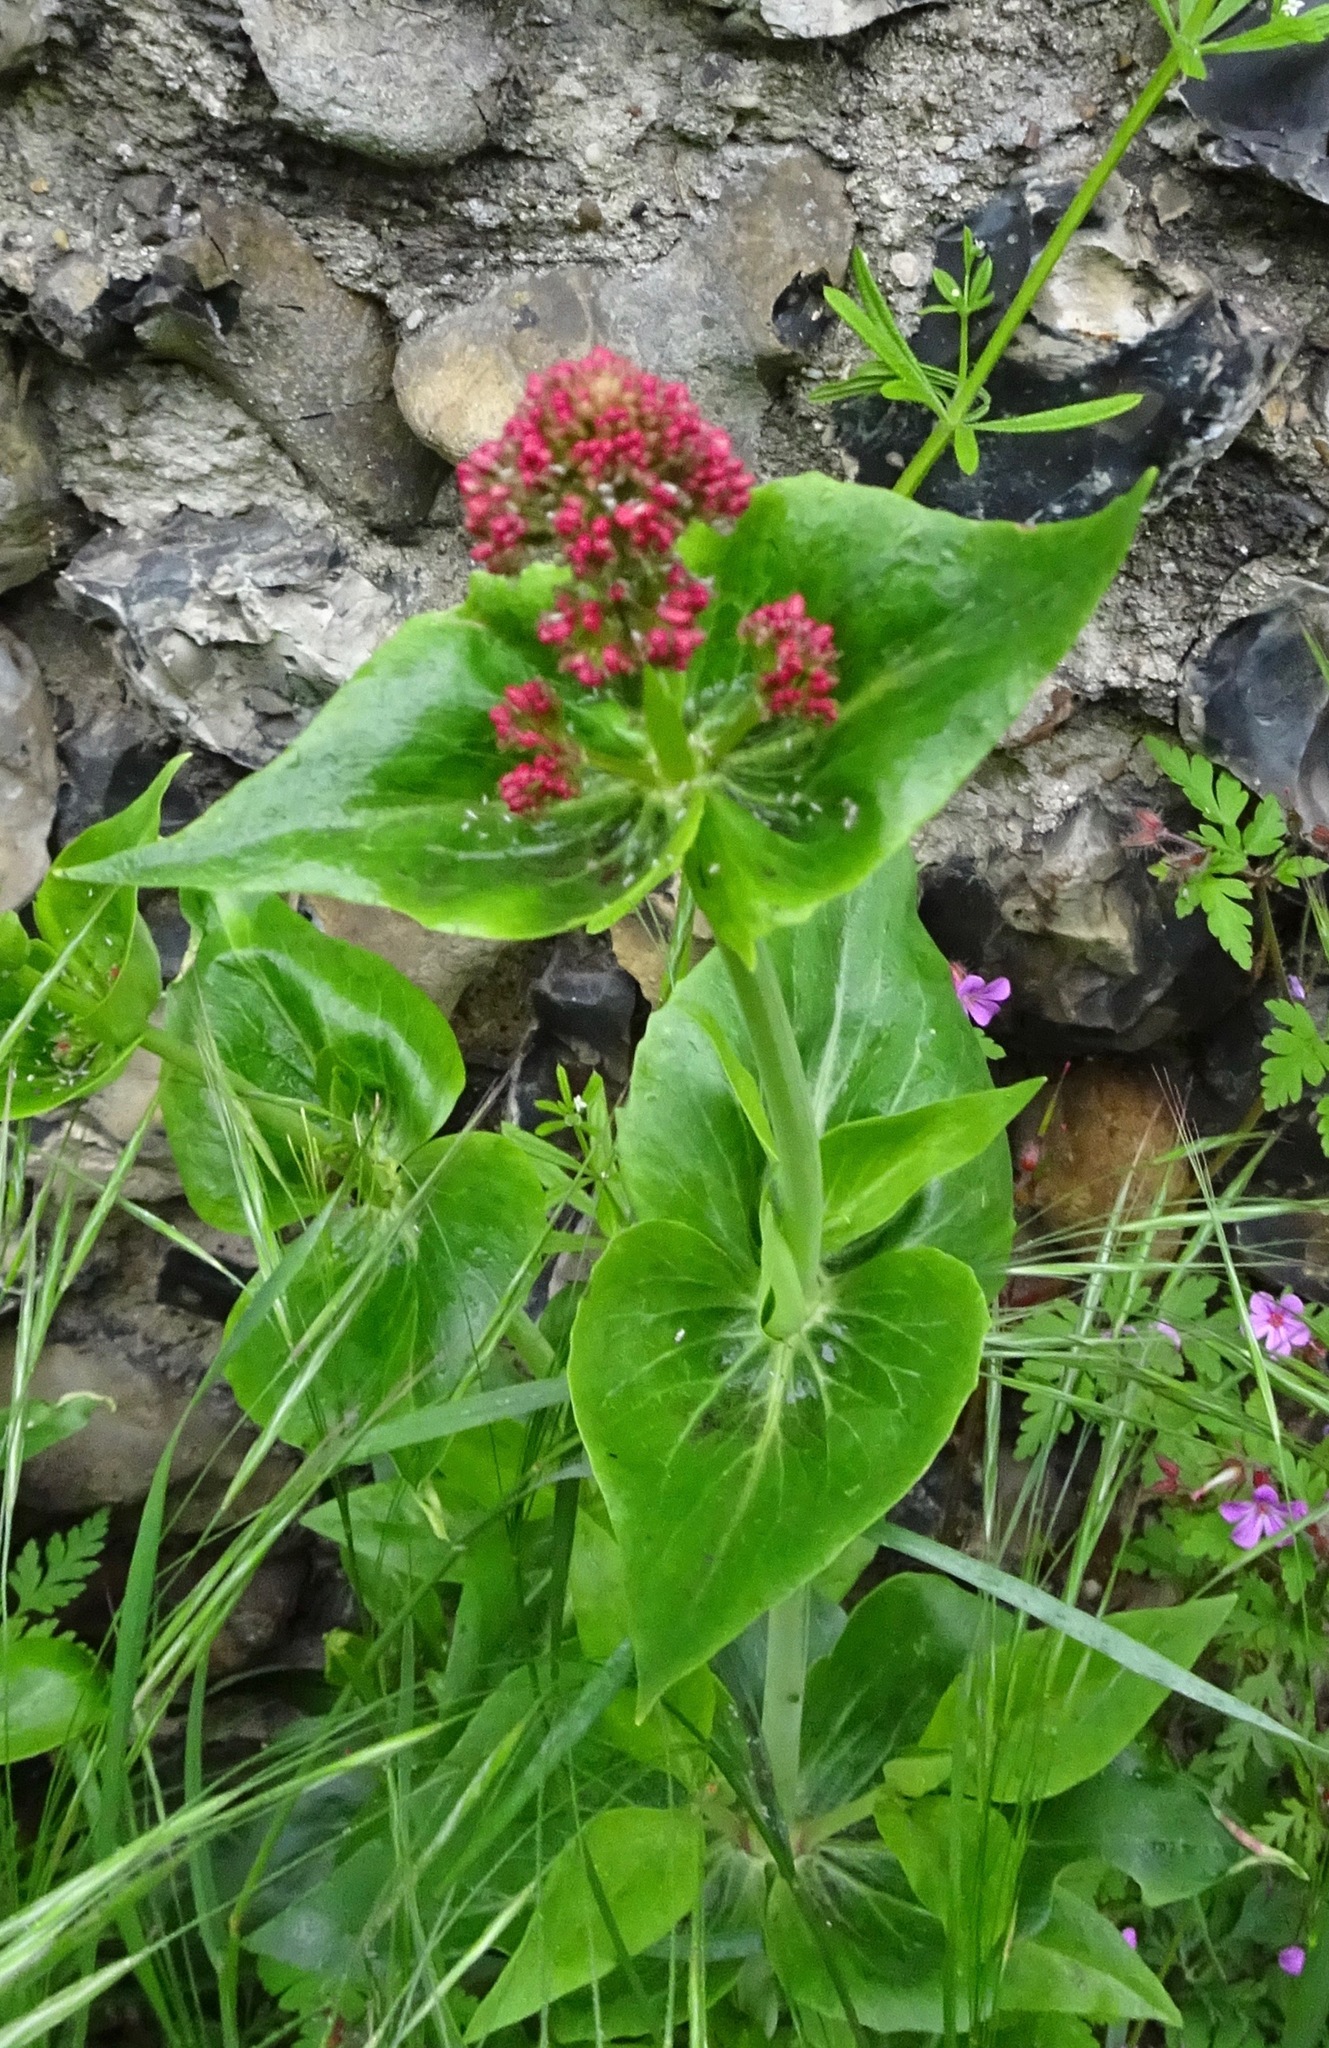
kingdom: Plantae
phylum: Tracheophyta
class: Magnoliopsida
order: Dipsacales
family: Caprifoliaceae
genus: Centranthus
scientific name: Centranthus ruber
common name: Red valerian
